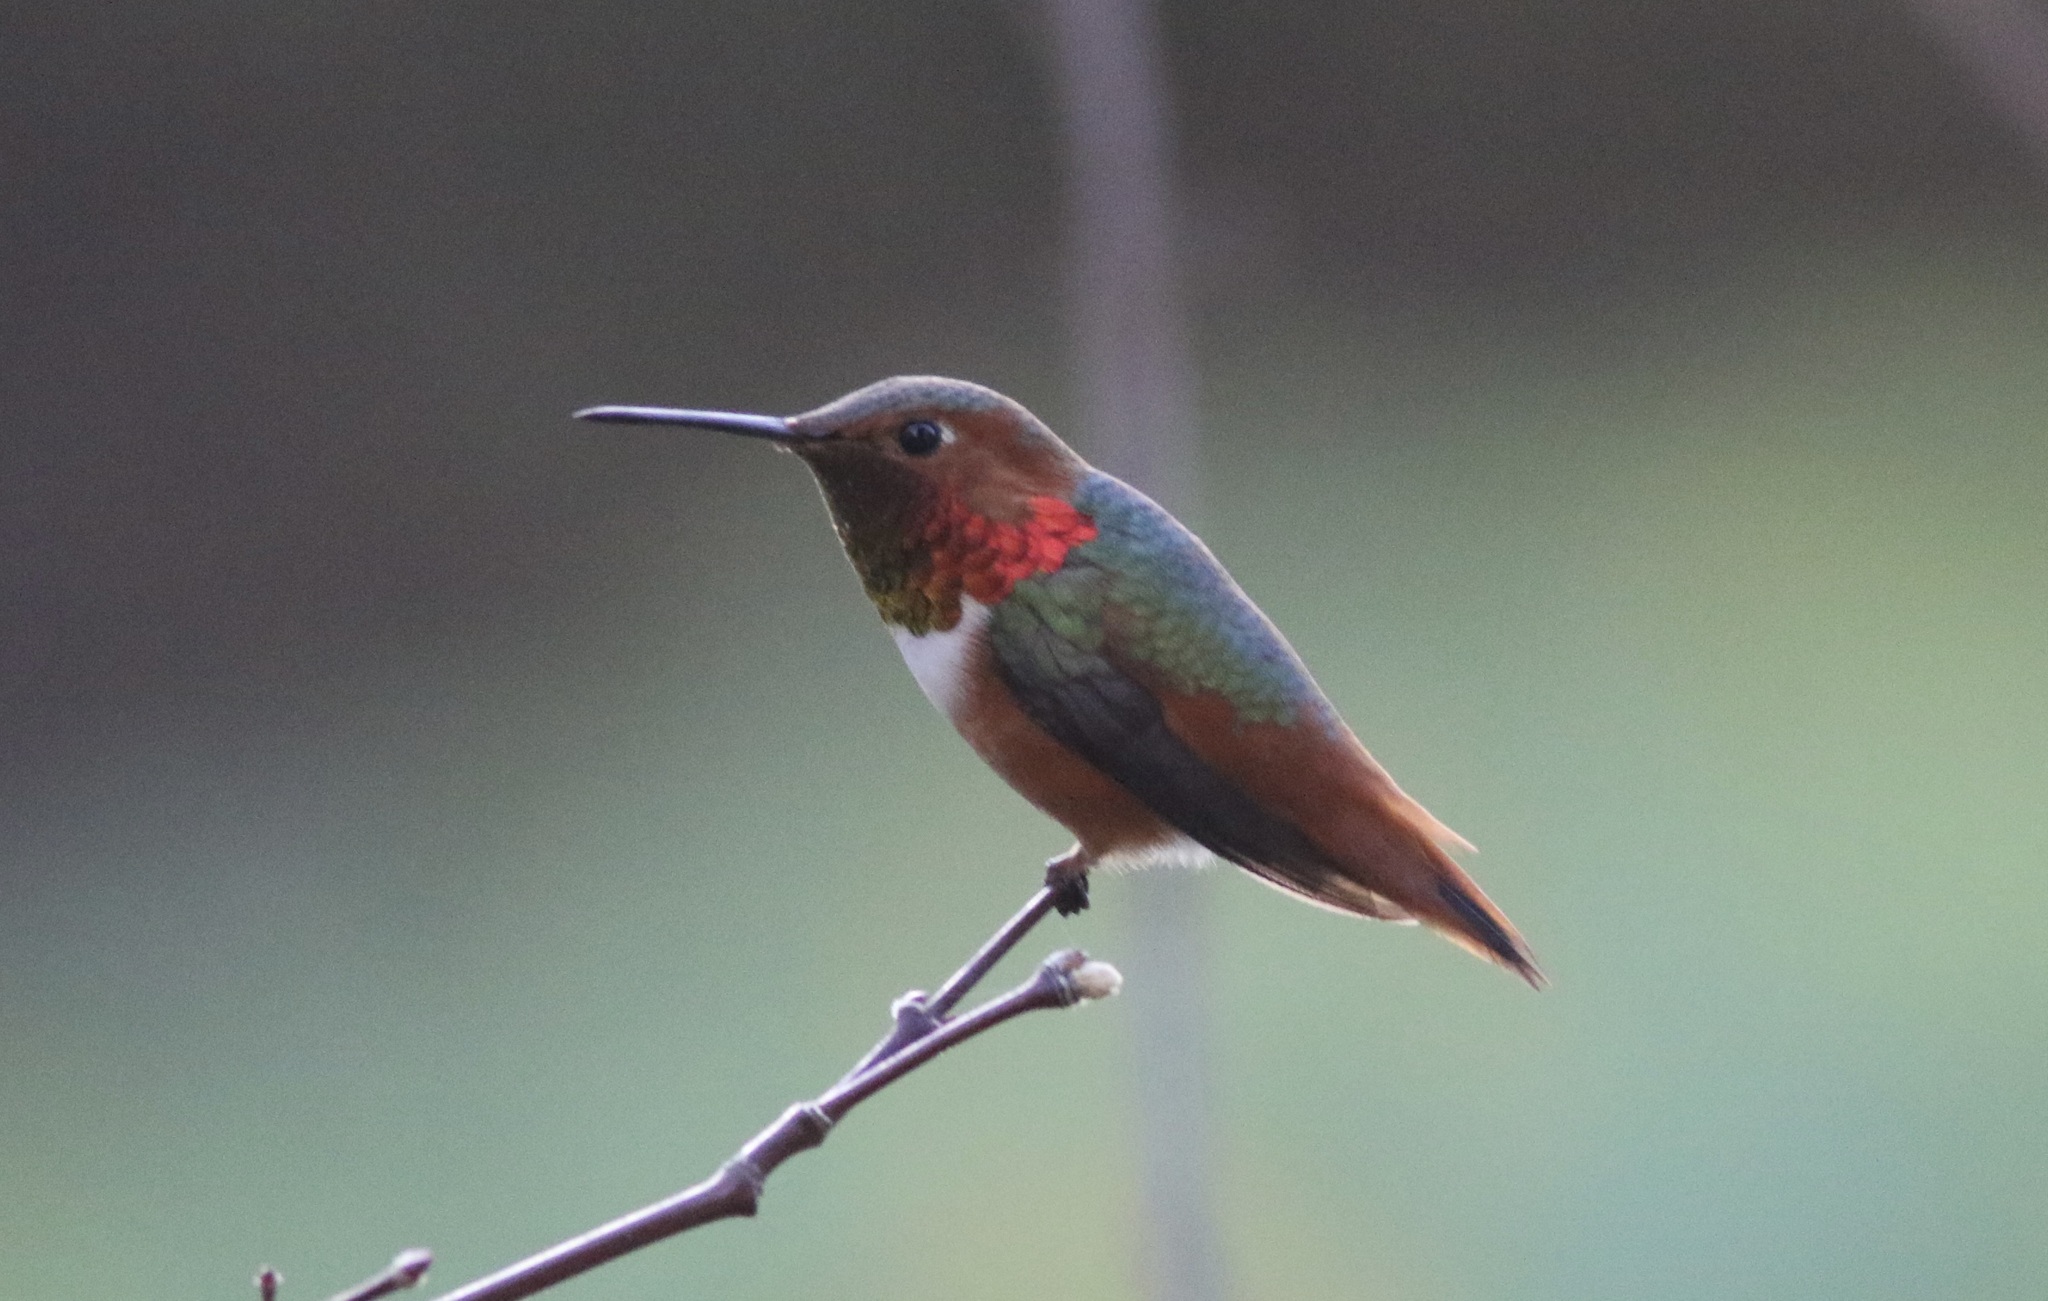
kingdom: Animalia
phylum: Chordata
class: Aves
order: Apodiformes
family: Trochilidae
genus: Selasphorus
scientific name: Selasphorus sasin
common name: Allen's hummingbird
